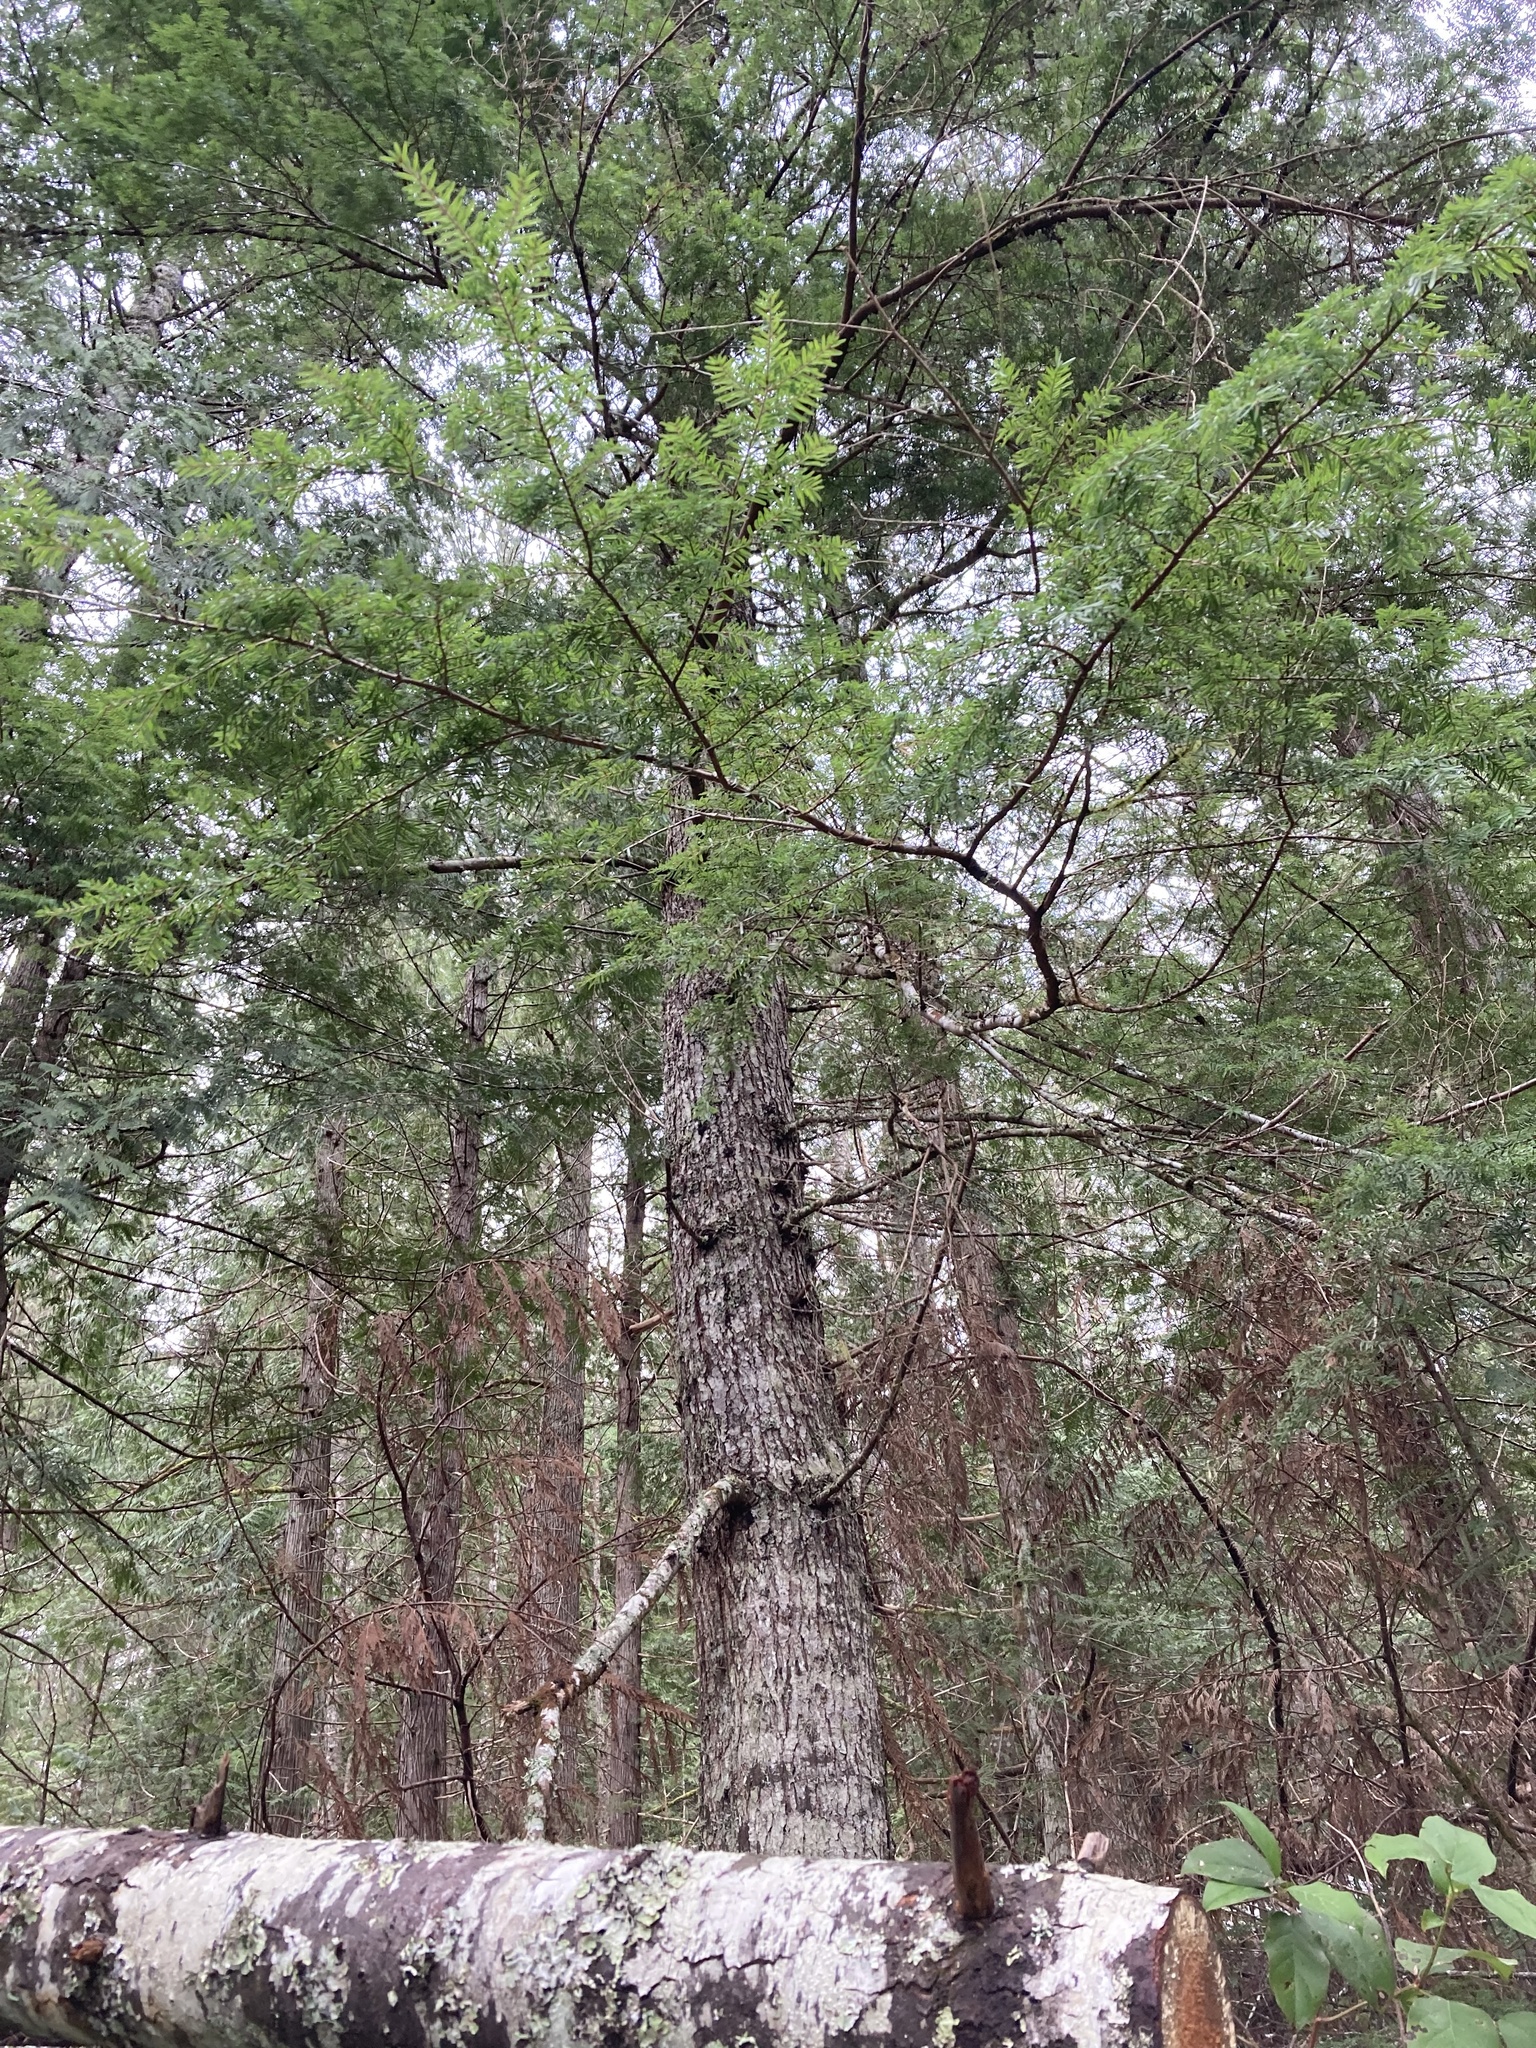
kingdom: Plantae
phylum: Tracheophyta
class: Pinopsida
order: Pinales
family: Pinaceae
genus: Tsuga
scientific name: Tsuga heterophylla
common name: Western hemlock
